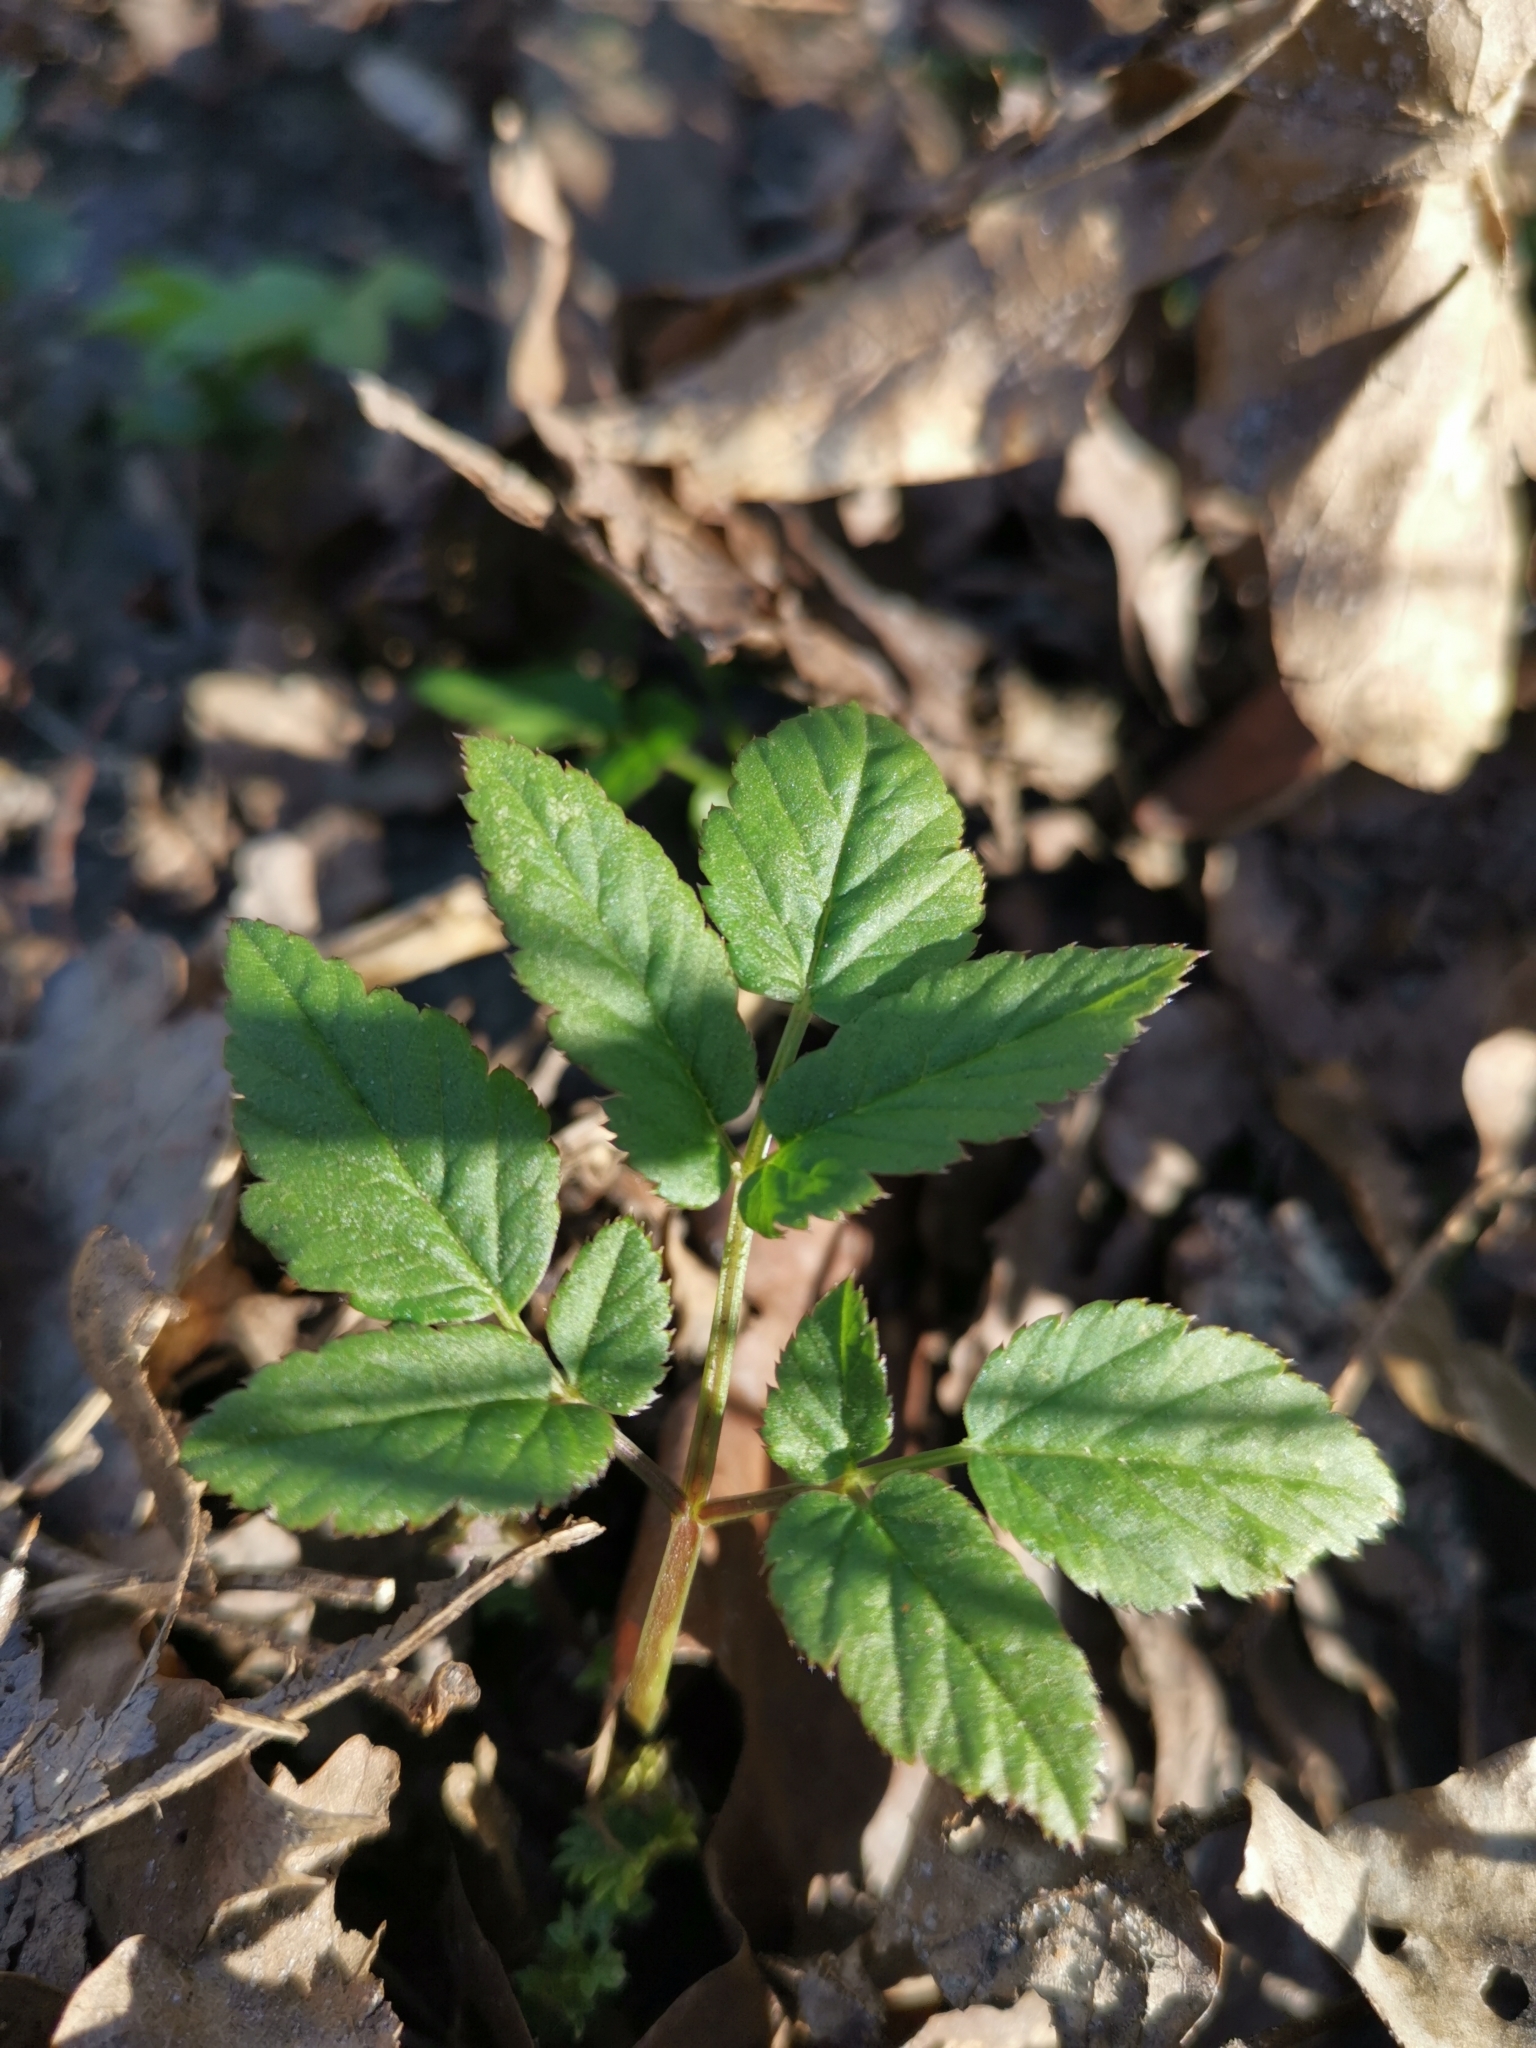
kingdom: Plantae
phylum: Tracheophyta
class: Magnoliopsida
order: Apiales
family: Apiaceae
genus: Aegopodium
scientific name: Aegopodium podagraria
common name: Ground-elder
